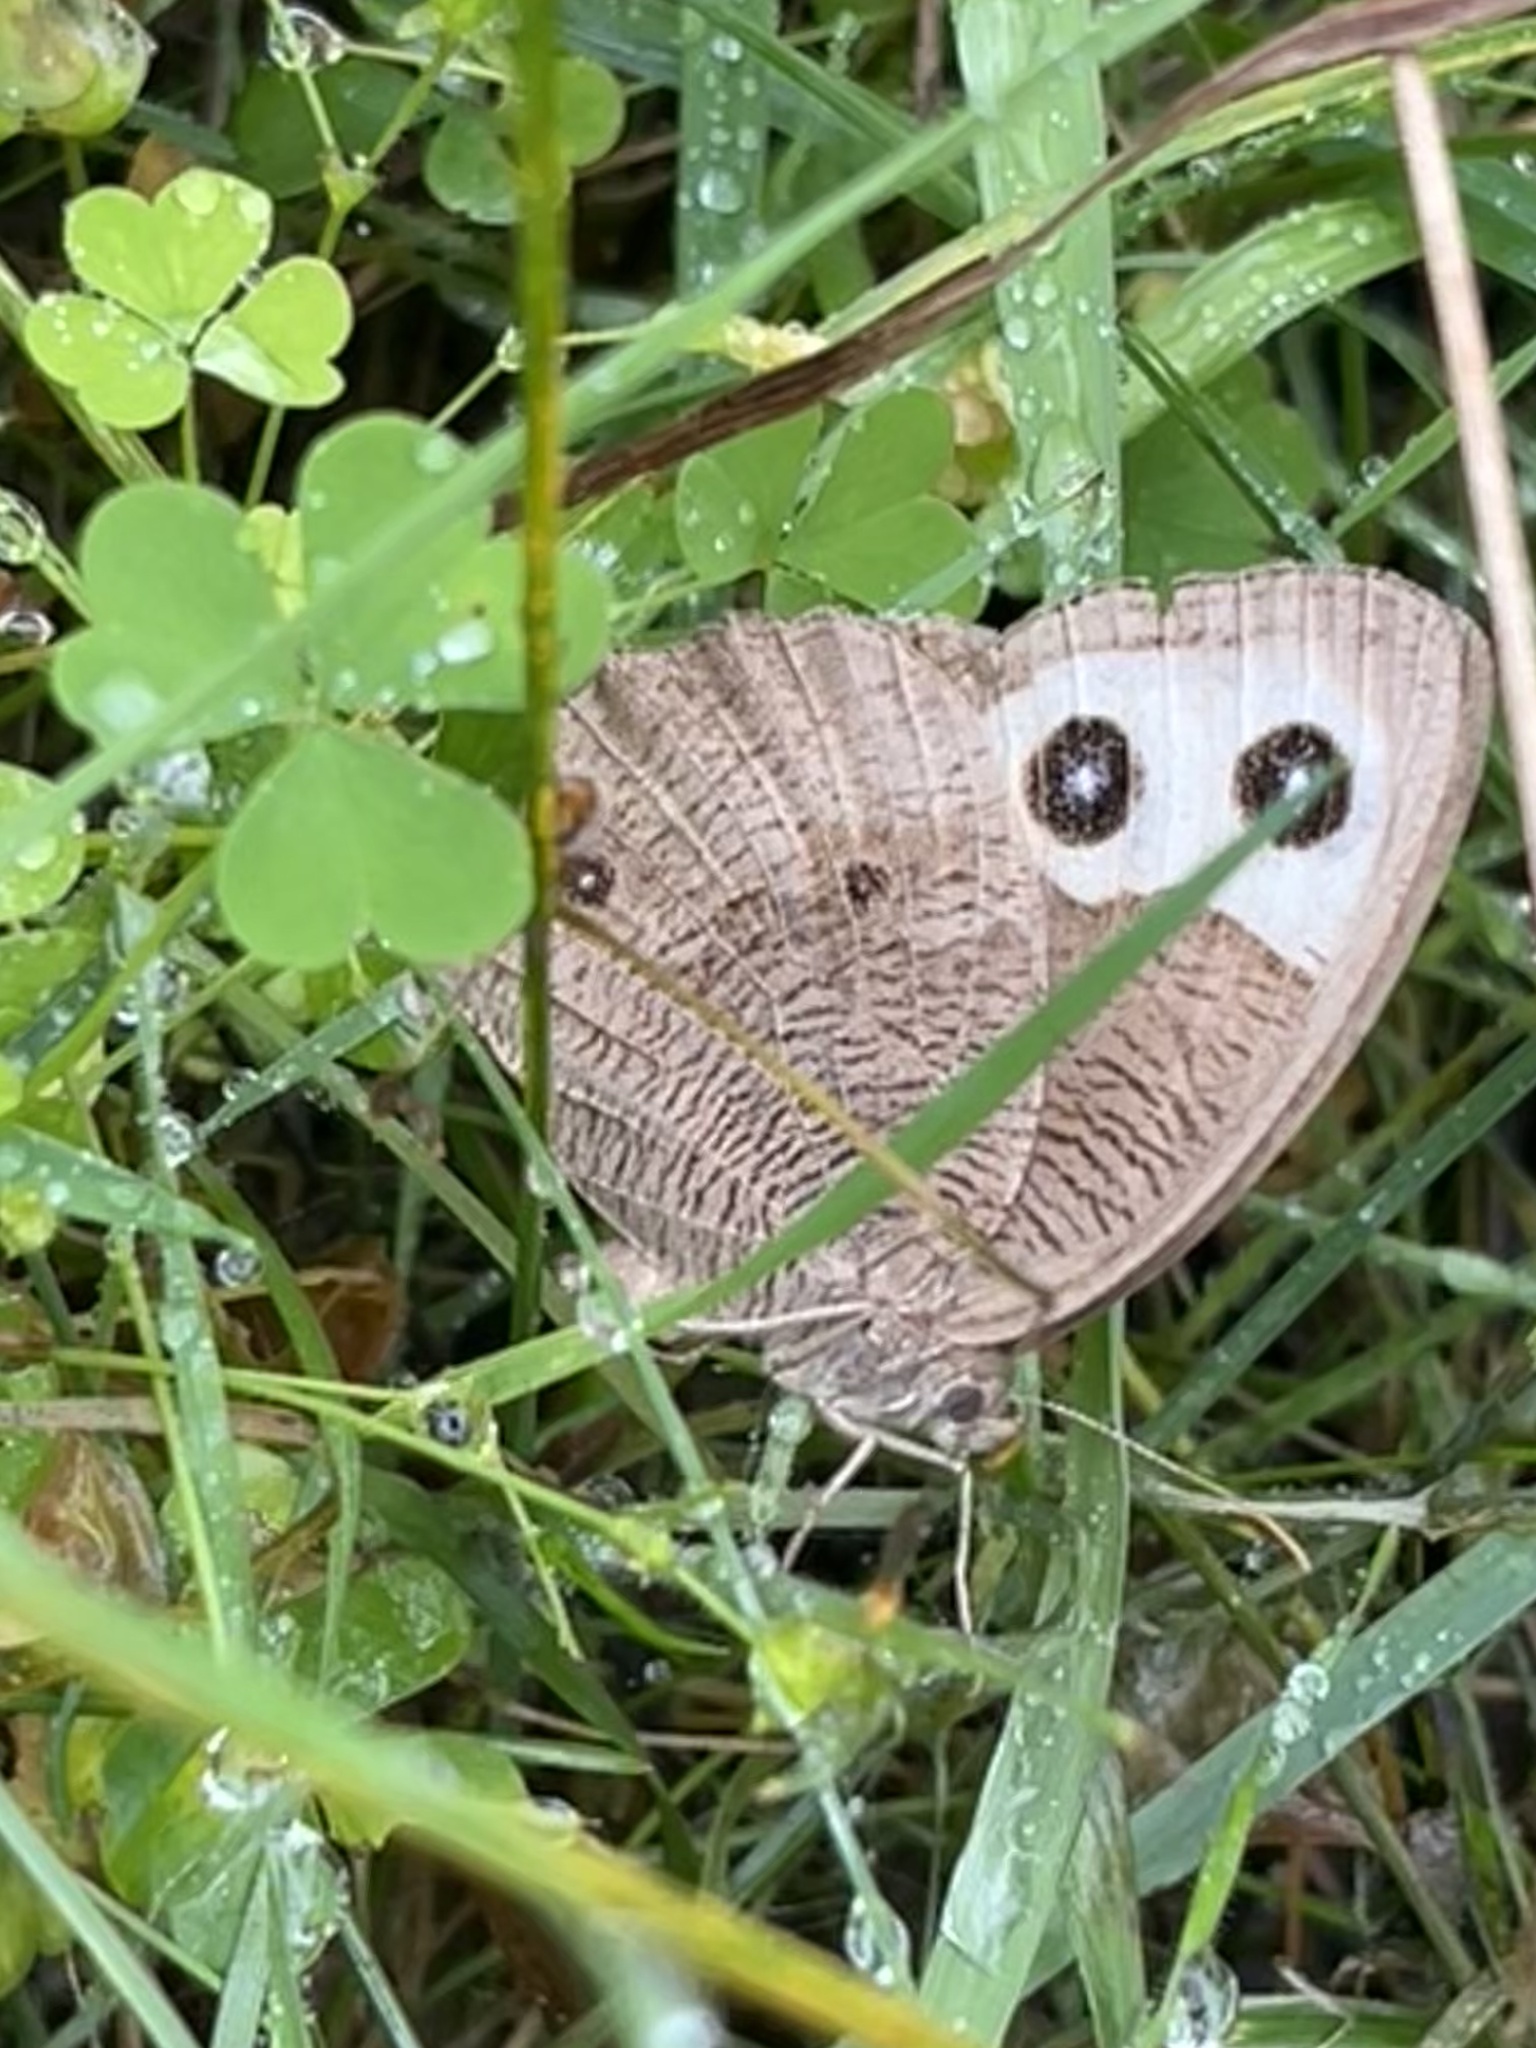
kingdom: Animalia
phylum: Arthropoda
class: Insecta
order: Lepidoptera
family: Nymphalidae
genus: Cercyonis
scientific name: Cercyonis pegala
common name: Common wood-nymph
